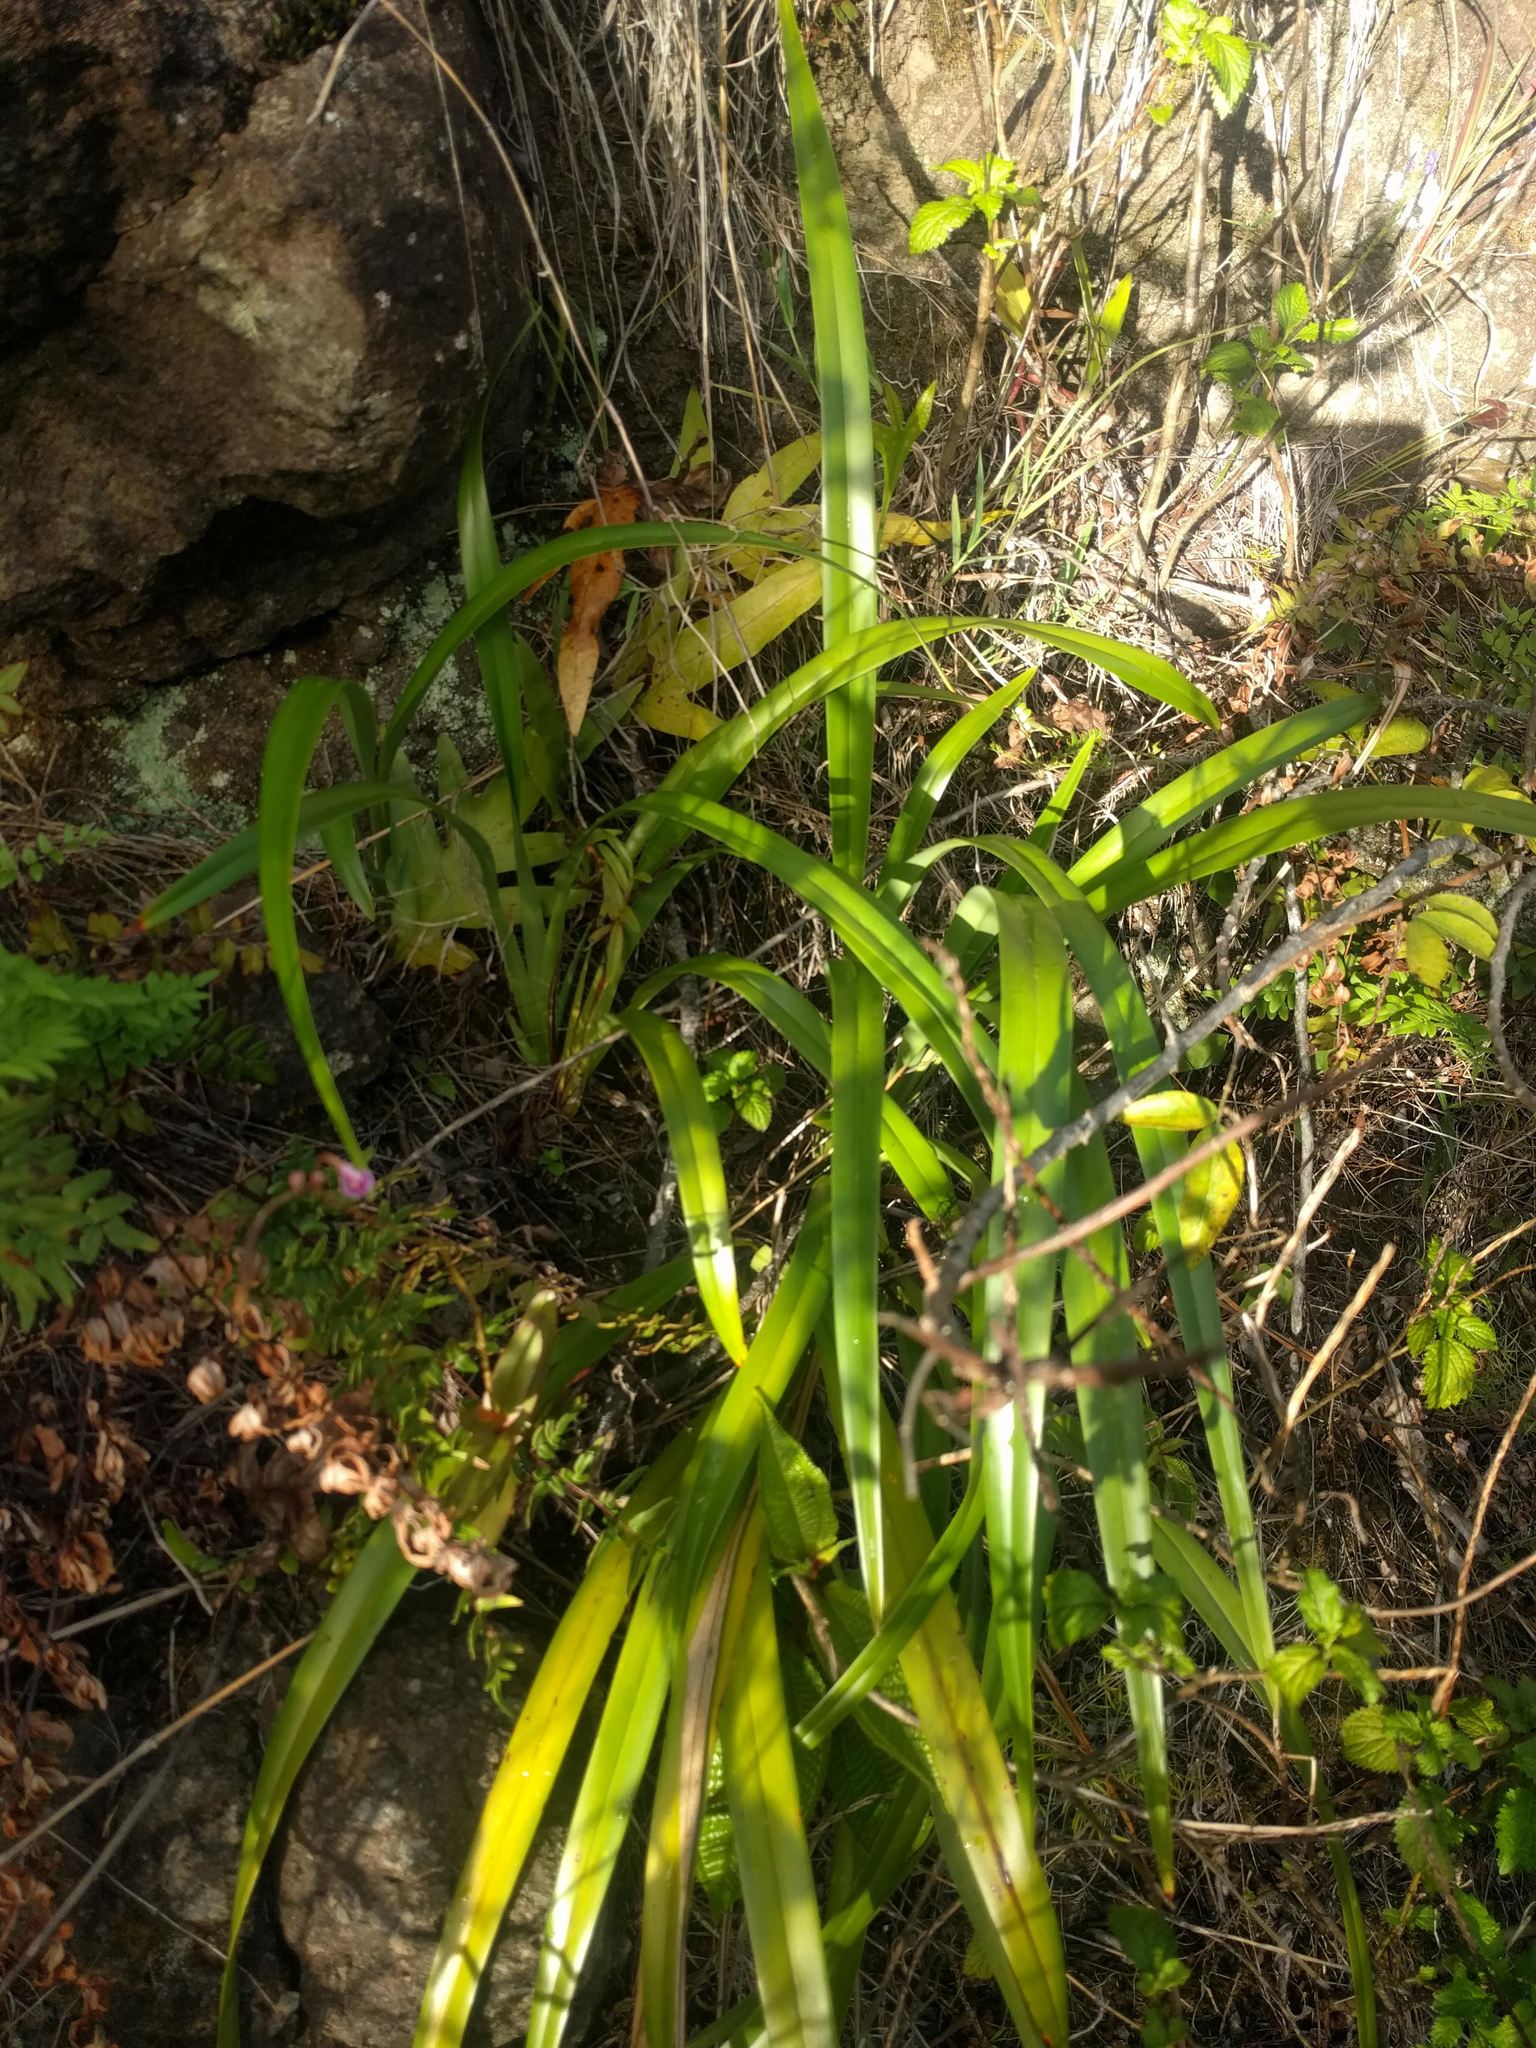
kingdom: Plantae
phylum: Tracheophyta
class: Liliopsida
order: Asparagales
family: Asphodelaceae
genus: Dianella
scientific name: Dianella sandwicensis
